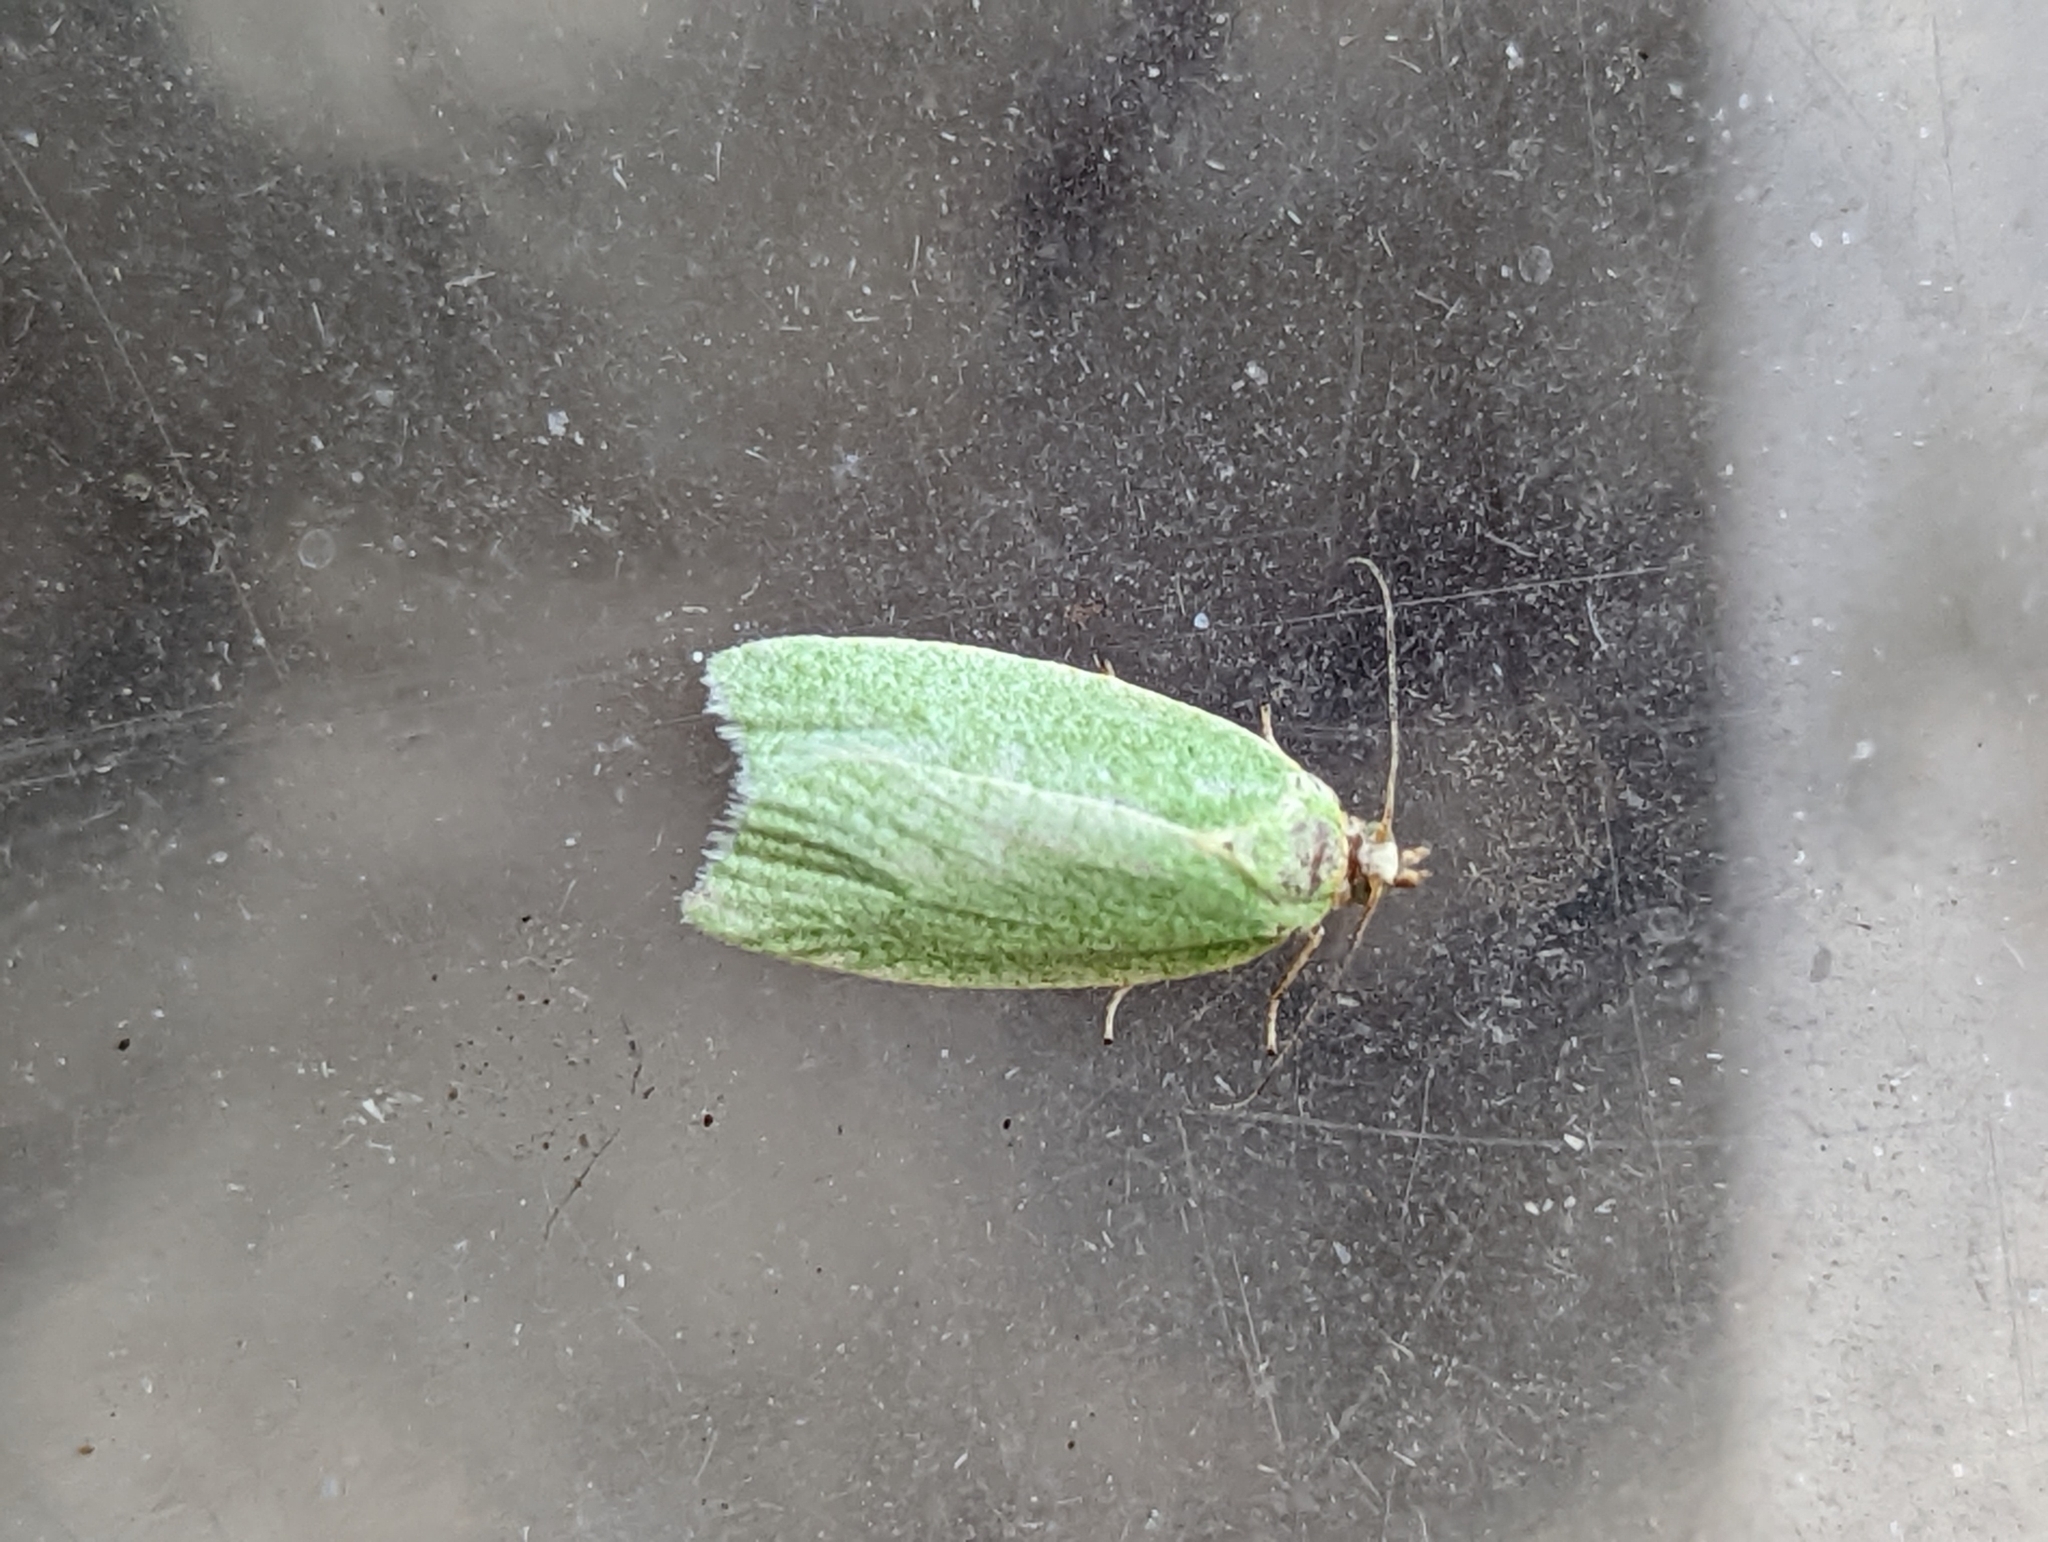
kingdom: Animalia
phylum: Arthropoda
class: Insecta
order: Lepidoptera
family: Tortricidae
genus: Tortrix
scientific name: Tortrix viridana
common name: Green oak tortrix
